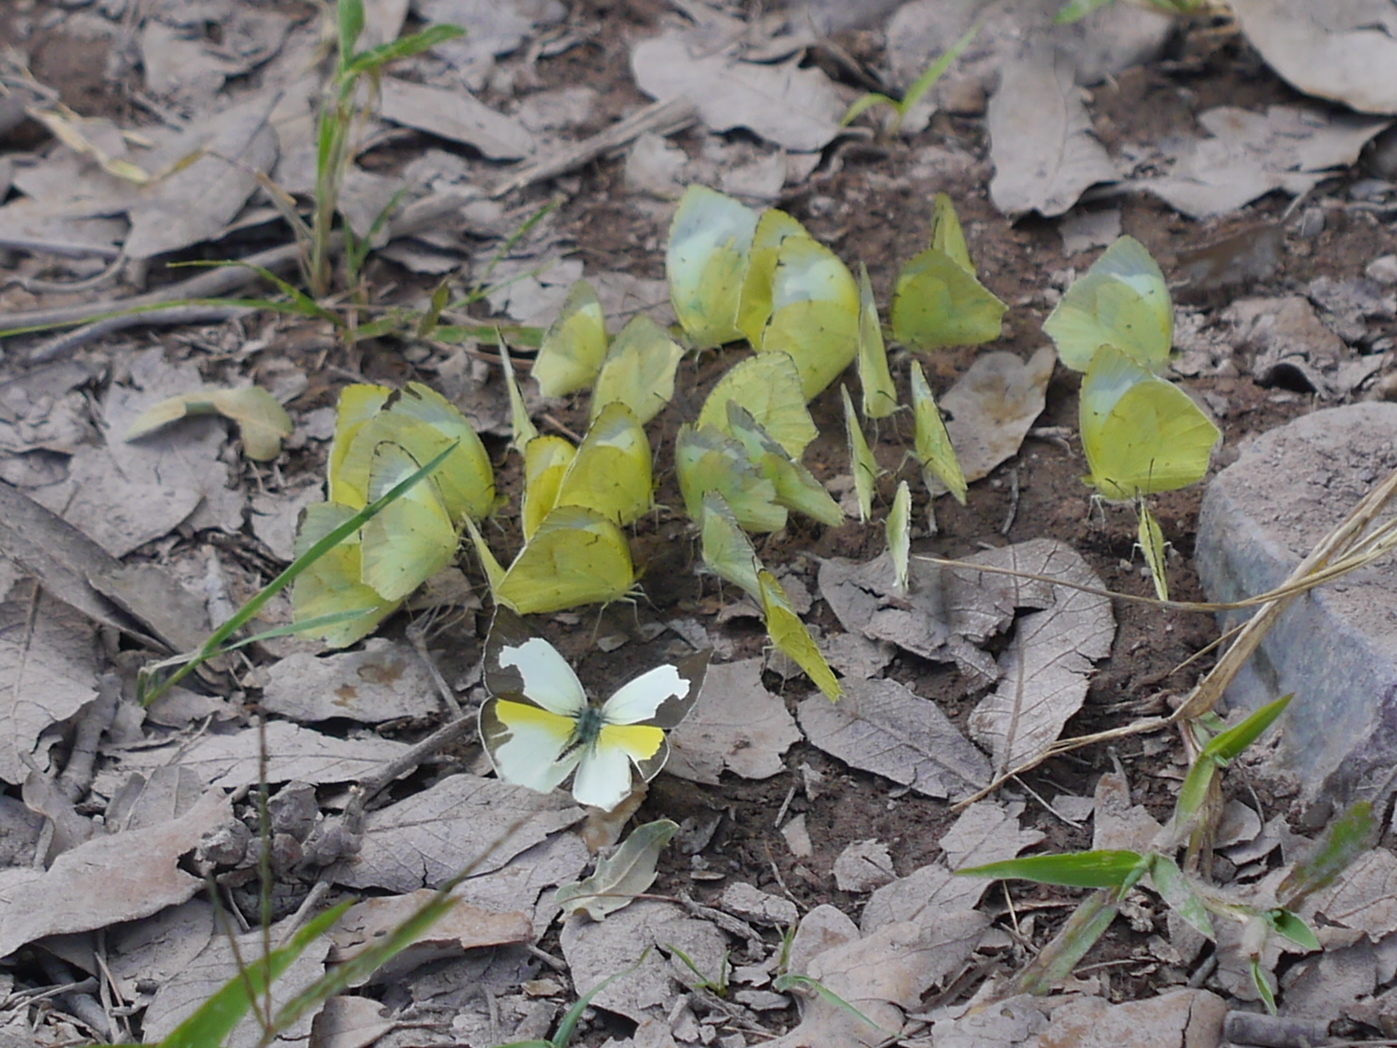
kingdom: Animalia
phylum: Arthropoda
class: Insecta
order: Lepidoptera
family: Pieridae
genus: Abaeis
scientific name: Abaeis mexicana
